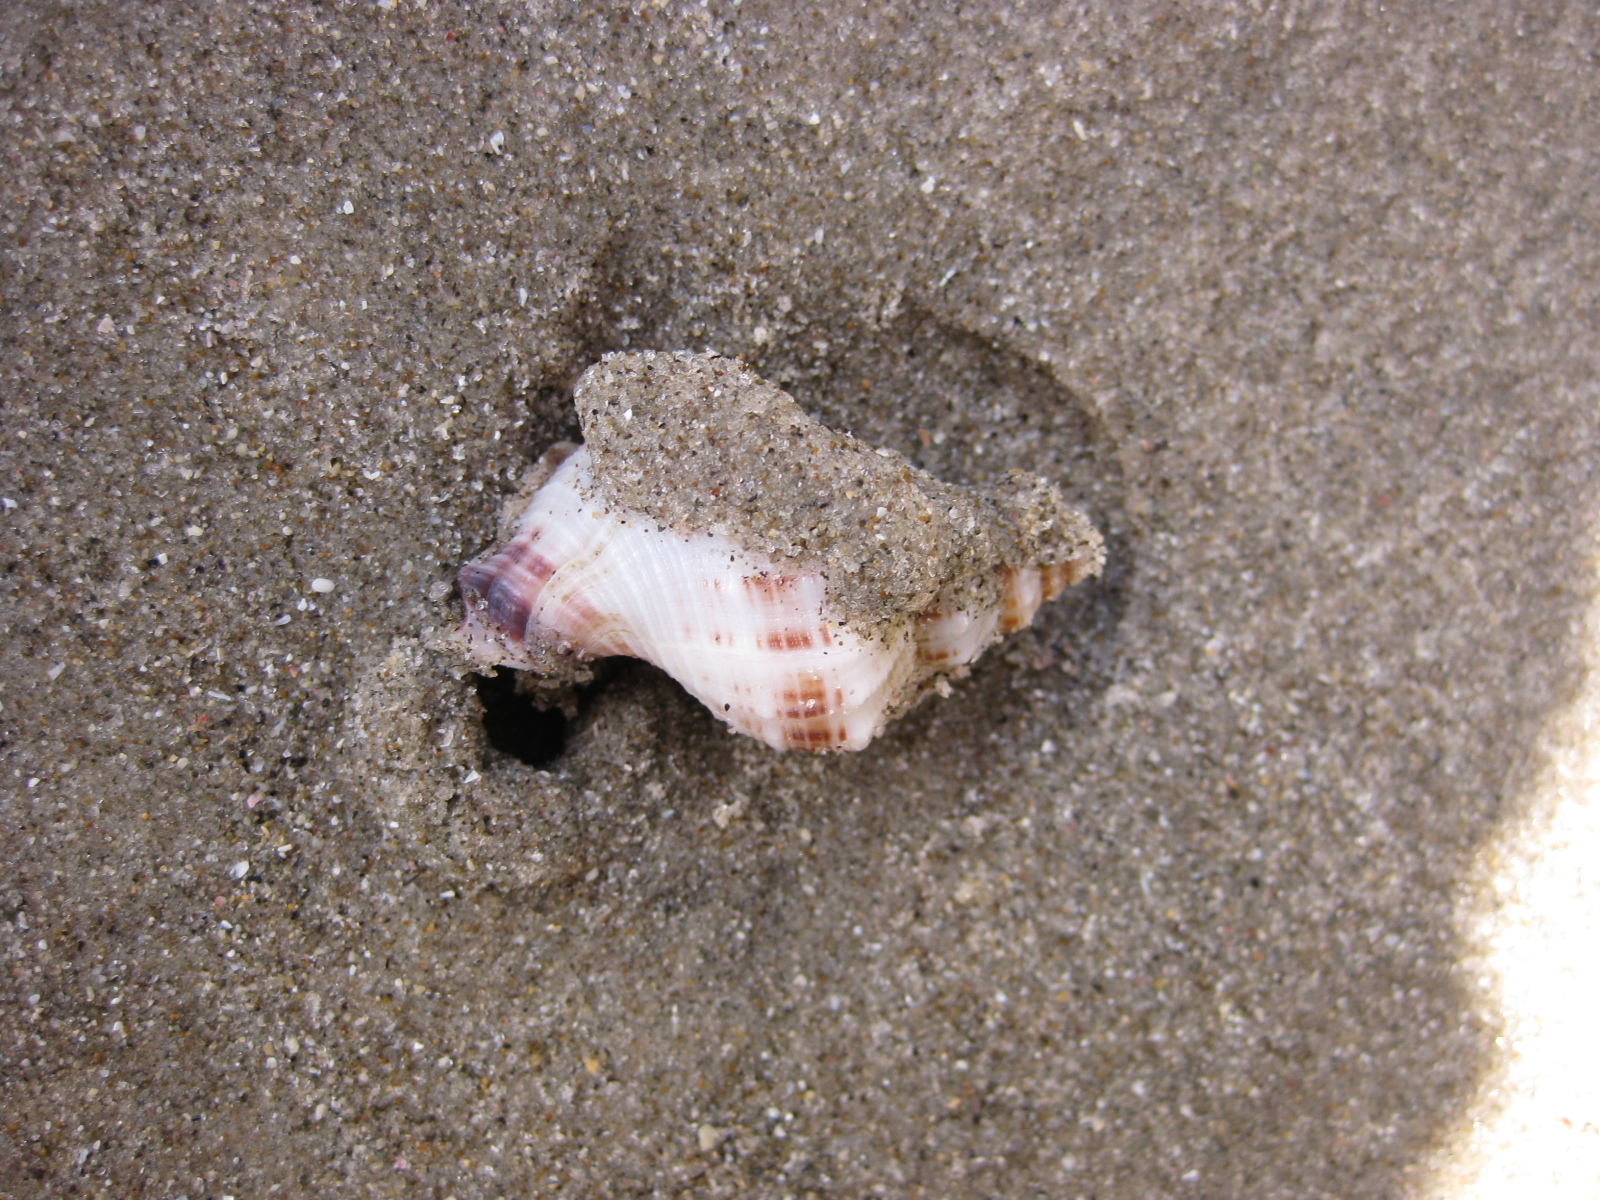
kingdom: Animalia
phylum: Mollusca
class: Gastropoda
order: Neogastropoda
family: Prosiphonidae
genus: Austrofusus
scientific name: Austrofusus glans
